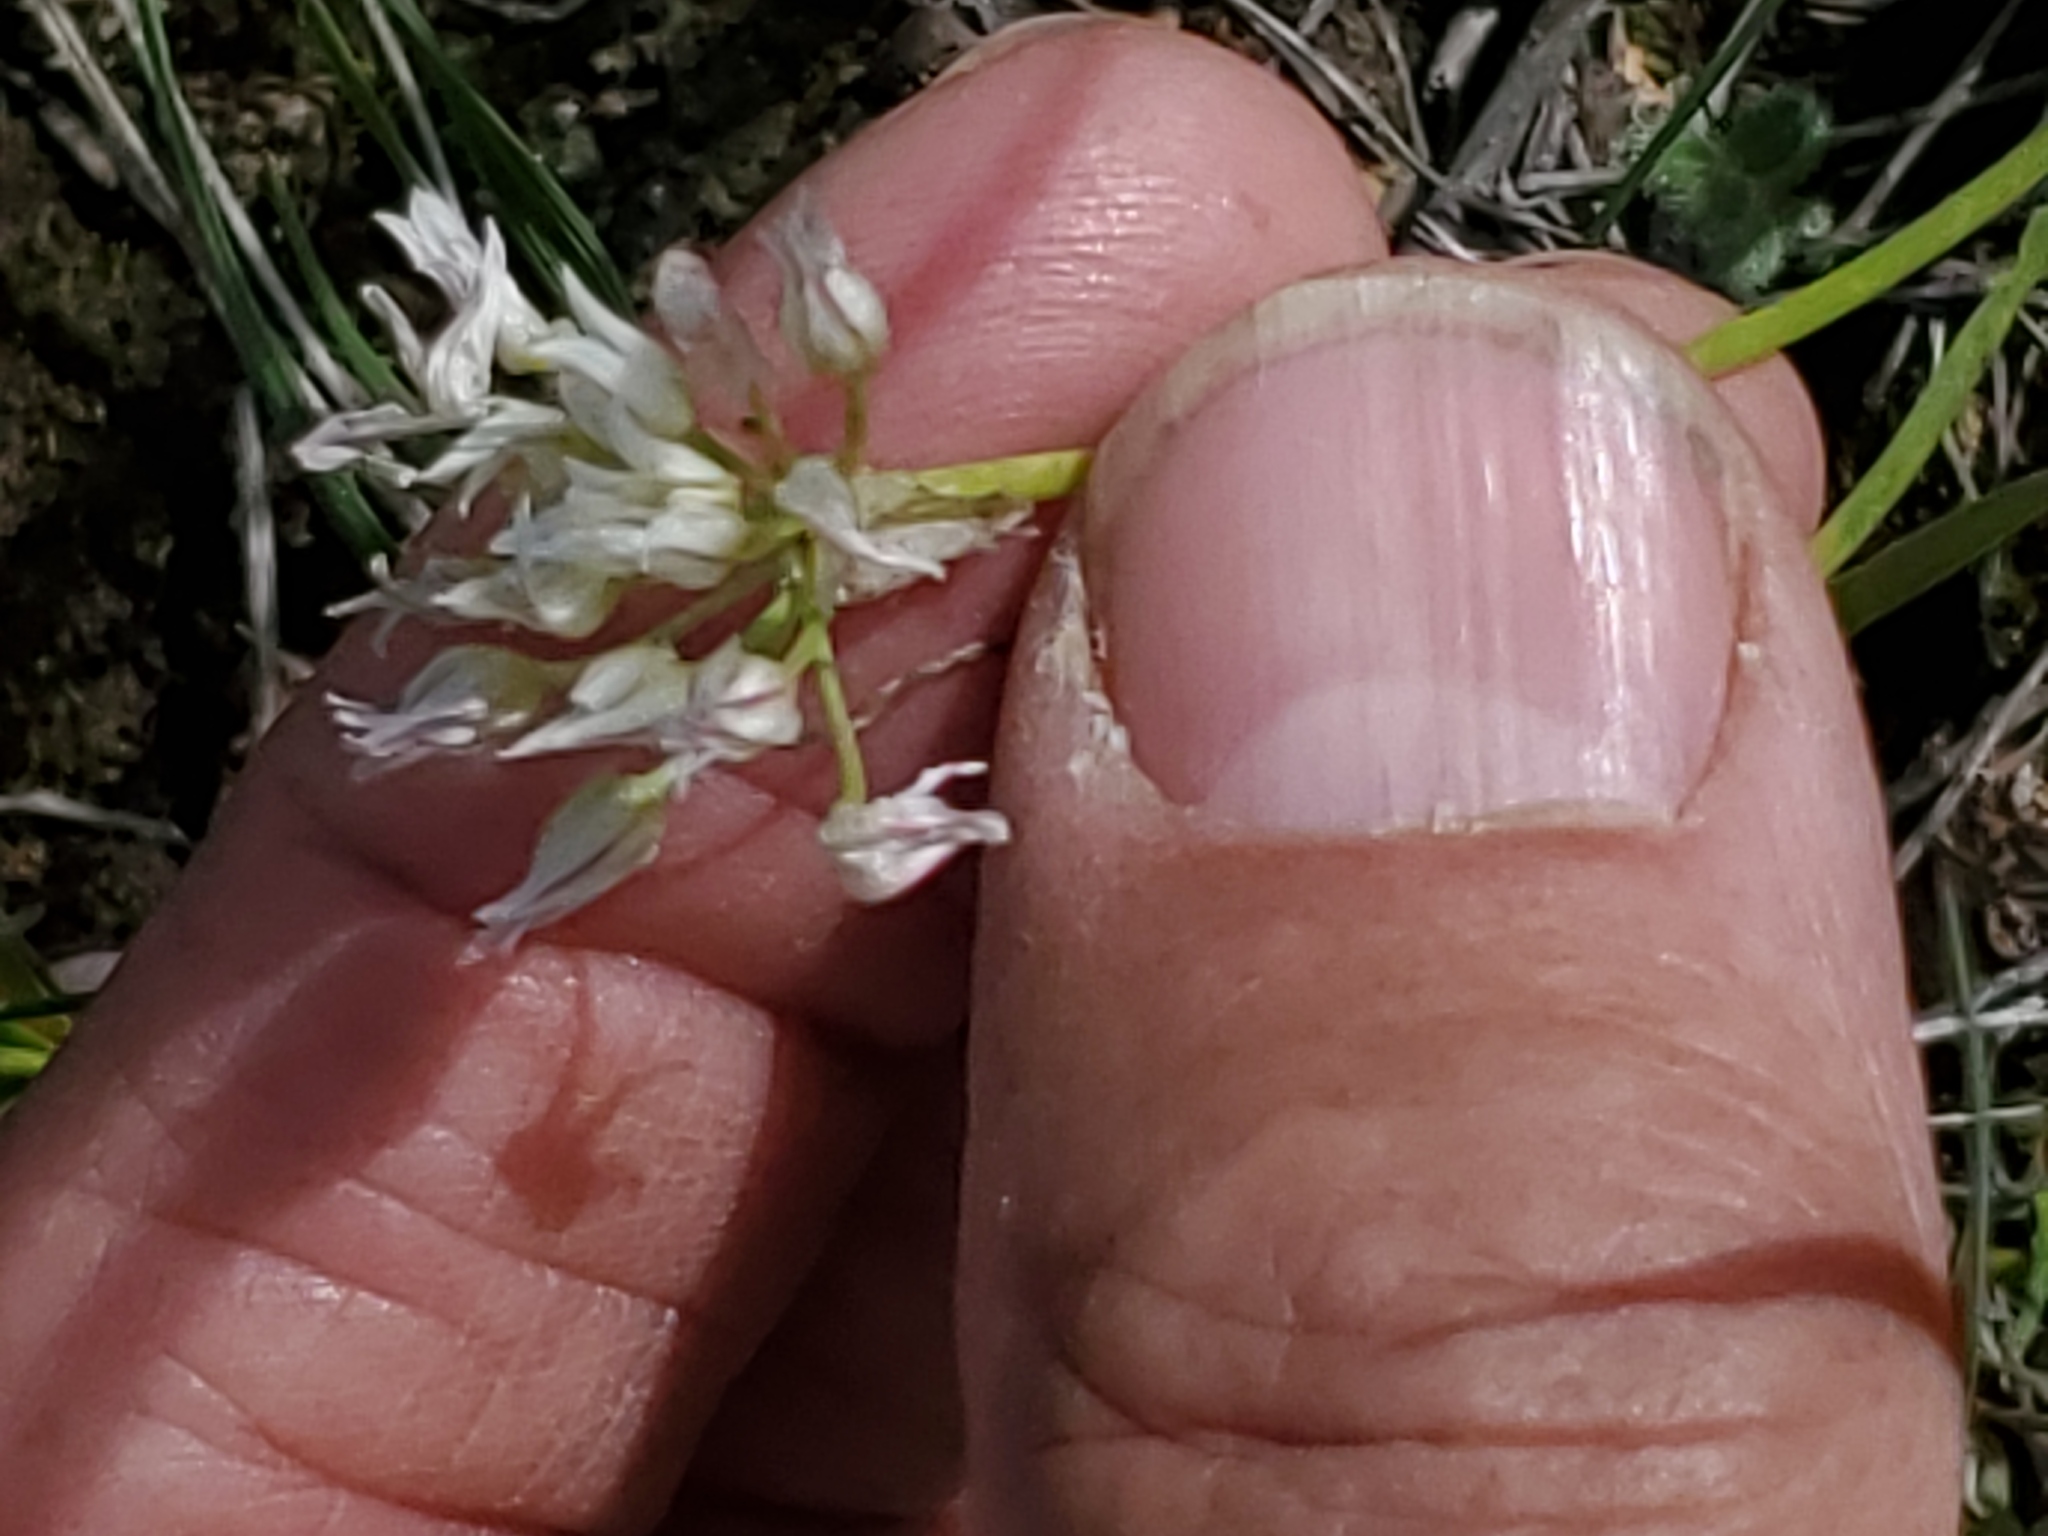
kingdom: Plantae
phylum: Tracheophyta
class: Liliopsida
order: Asparagales
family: Amaryllidaceae
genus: Allium
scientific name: Allium textile
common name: Prairie onion
